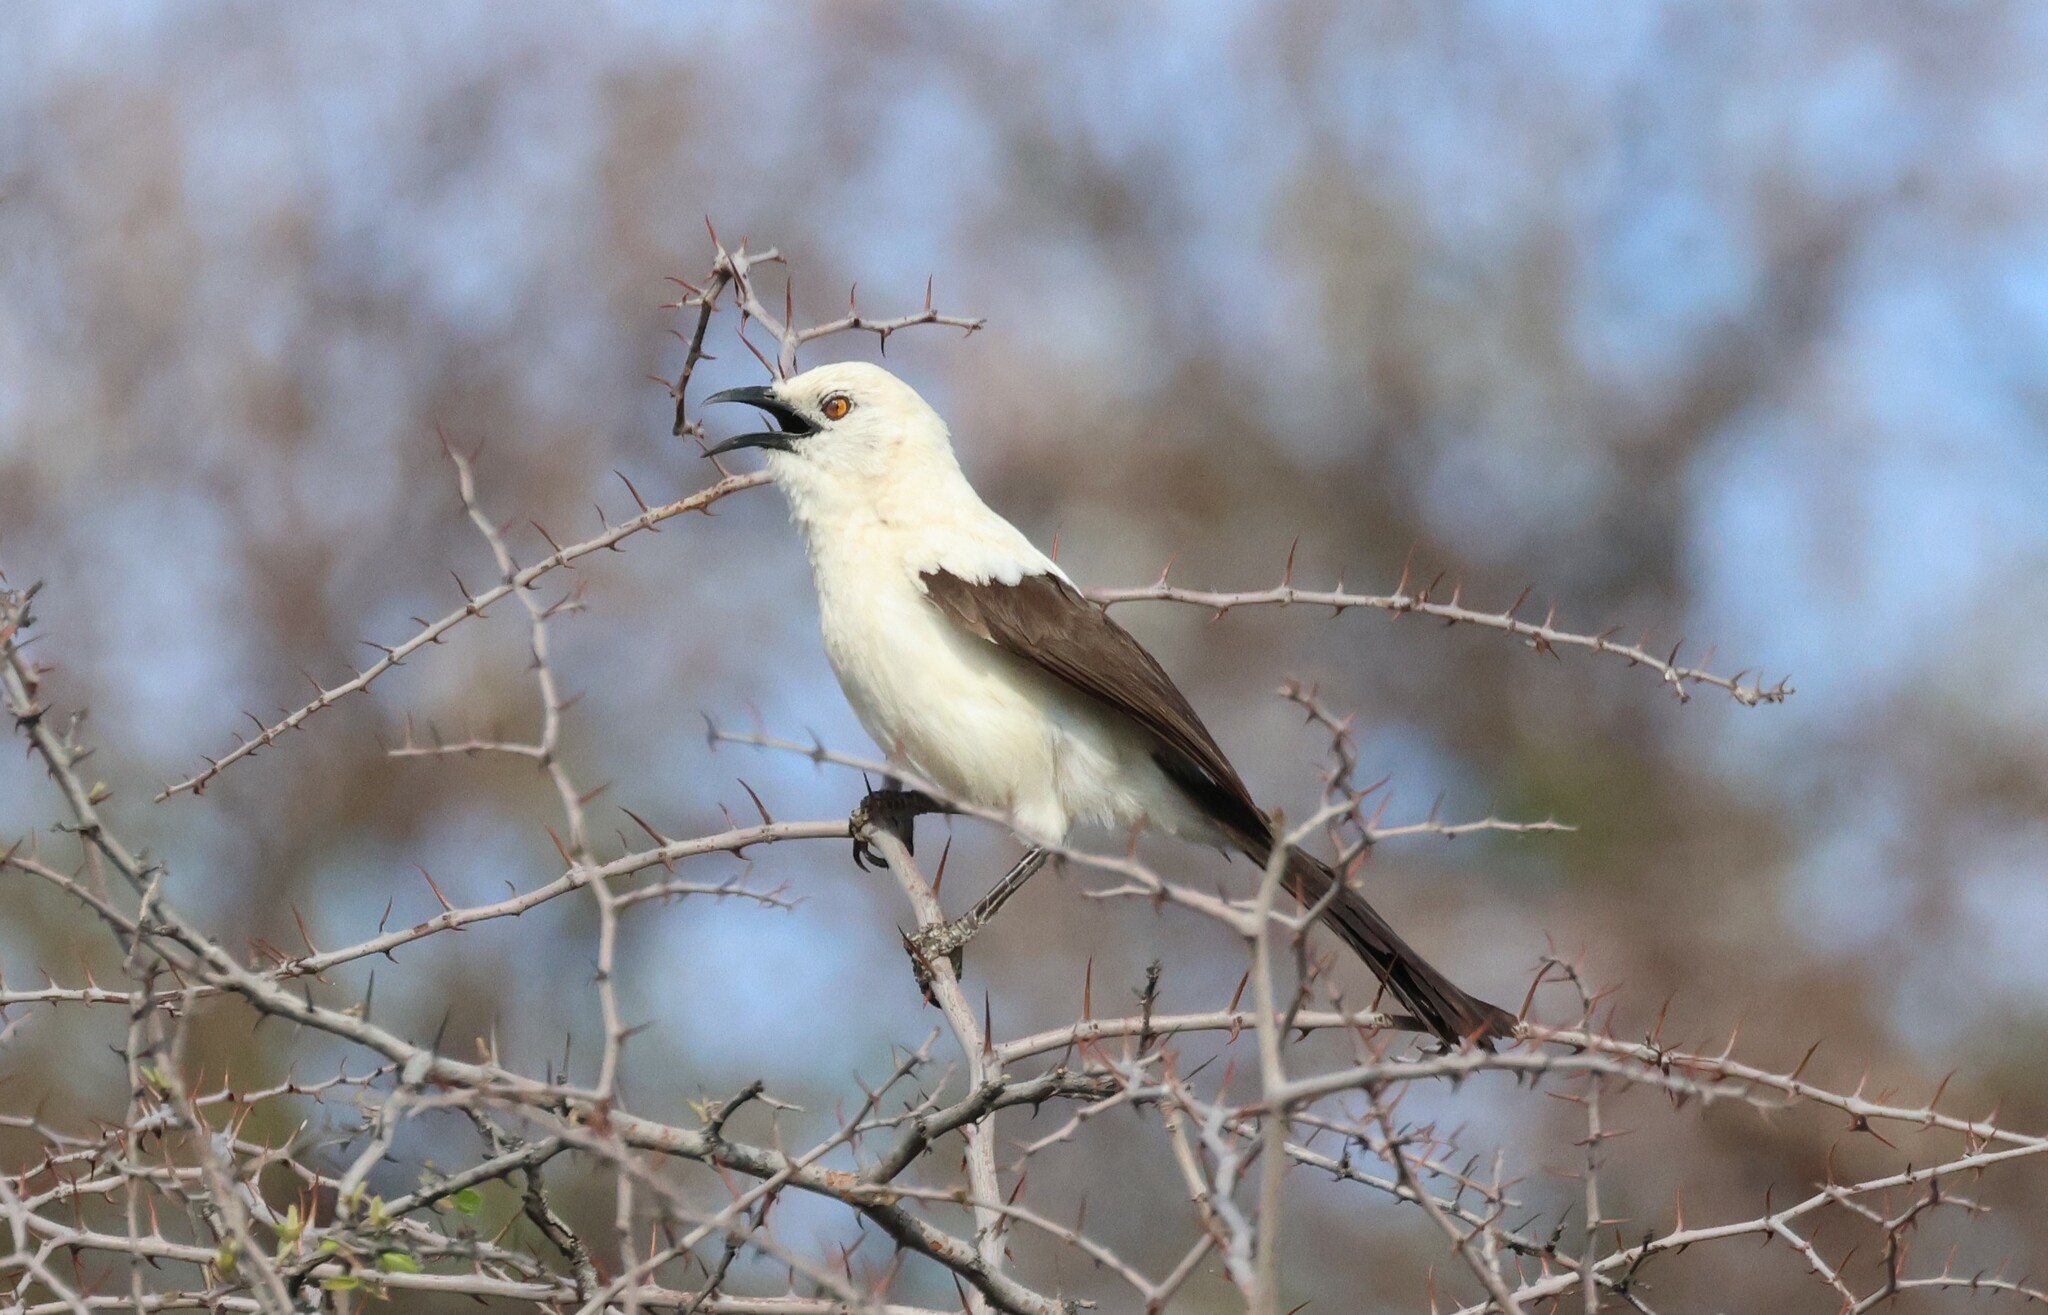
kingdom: Animalia
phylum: Chordata
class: Aves
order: Passeriformes
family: Leiothrichidae
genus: Turdoides
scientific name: Turdoides bicolor
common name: Southern pied babbler
